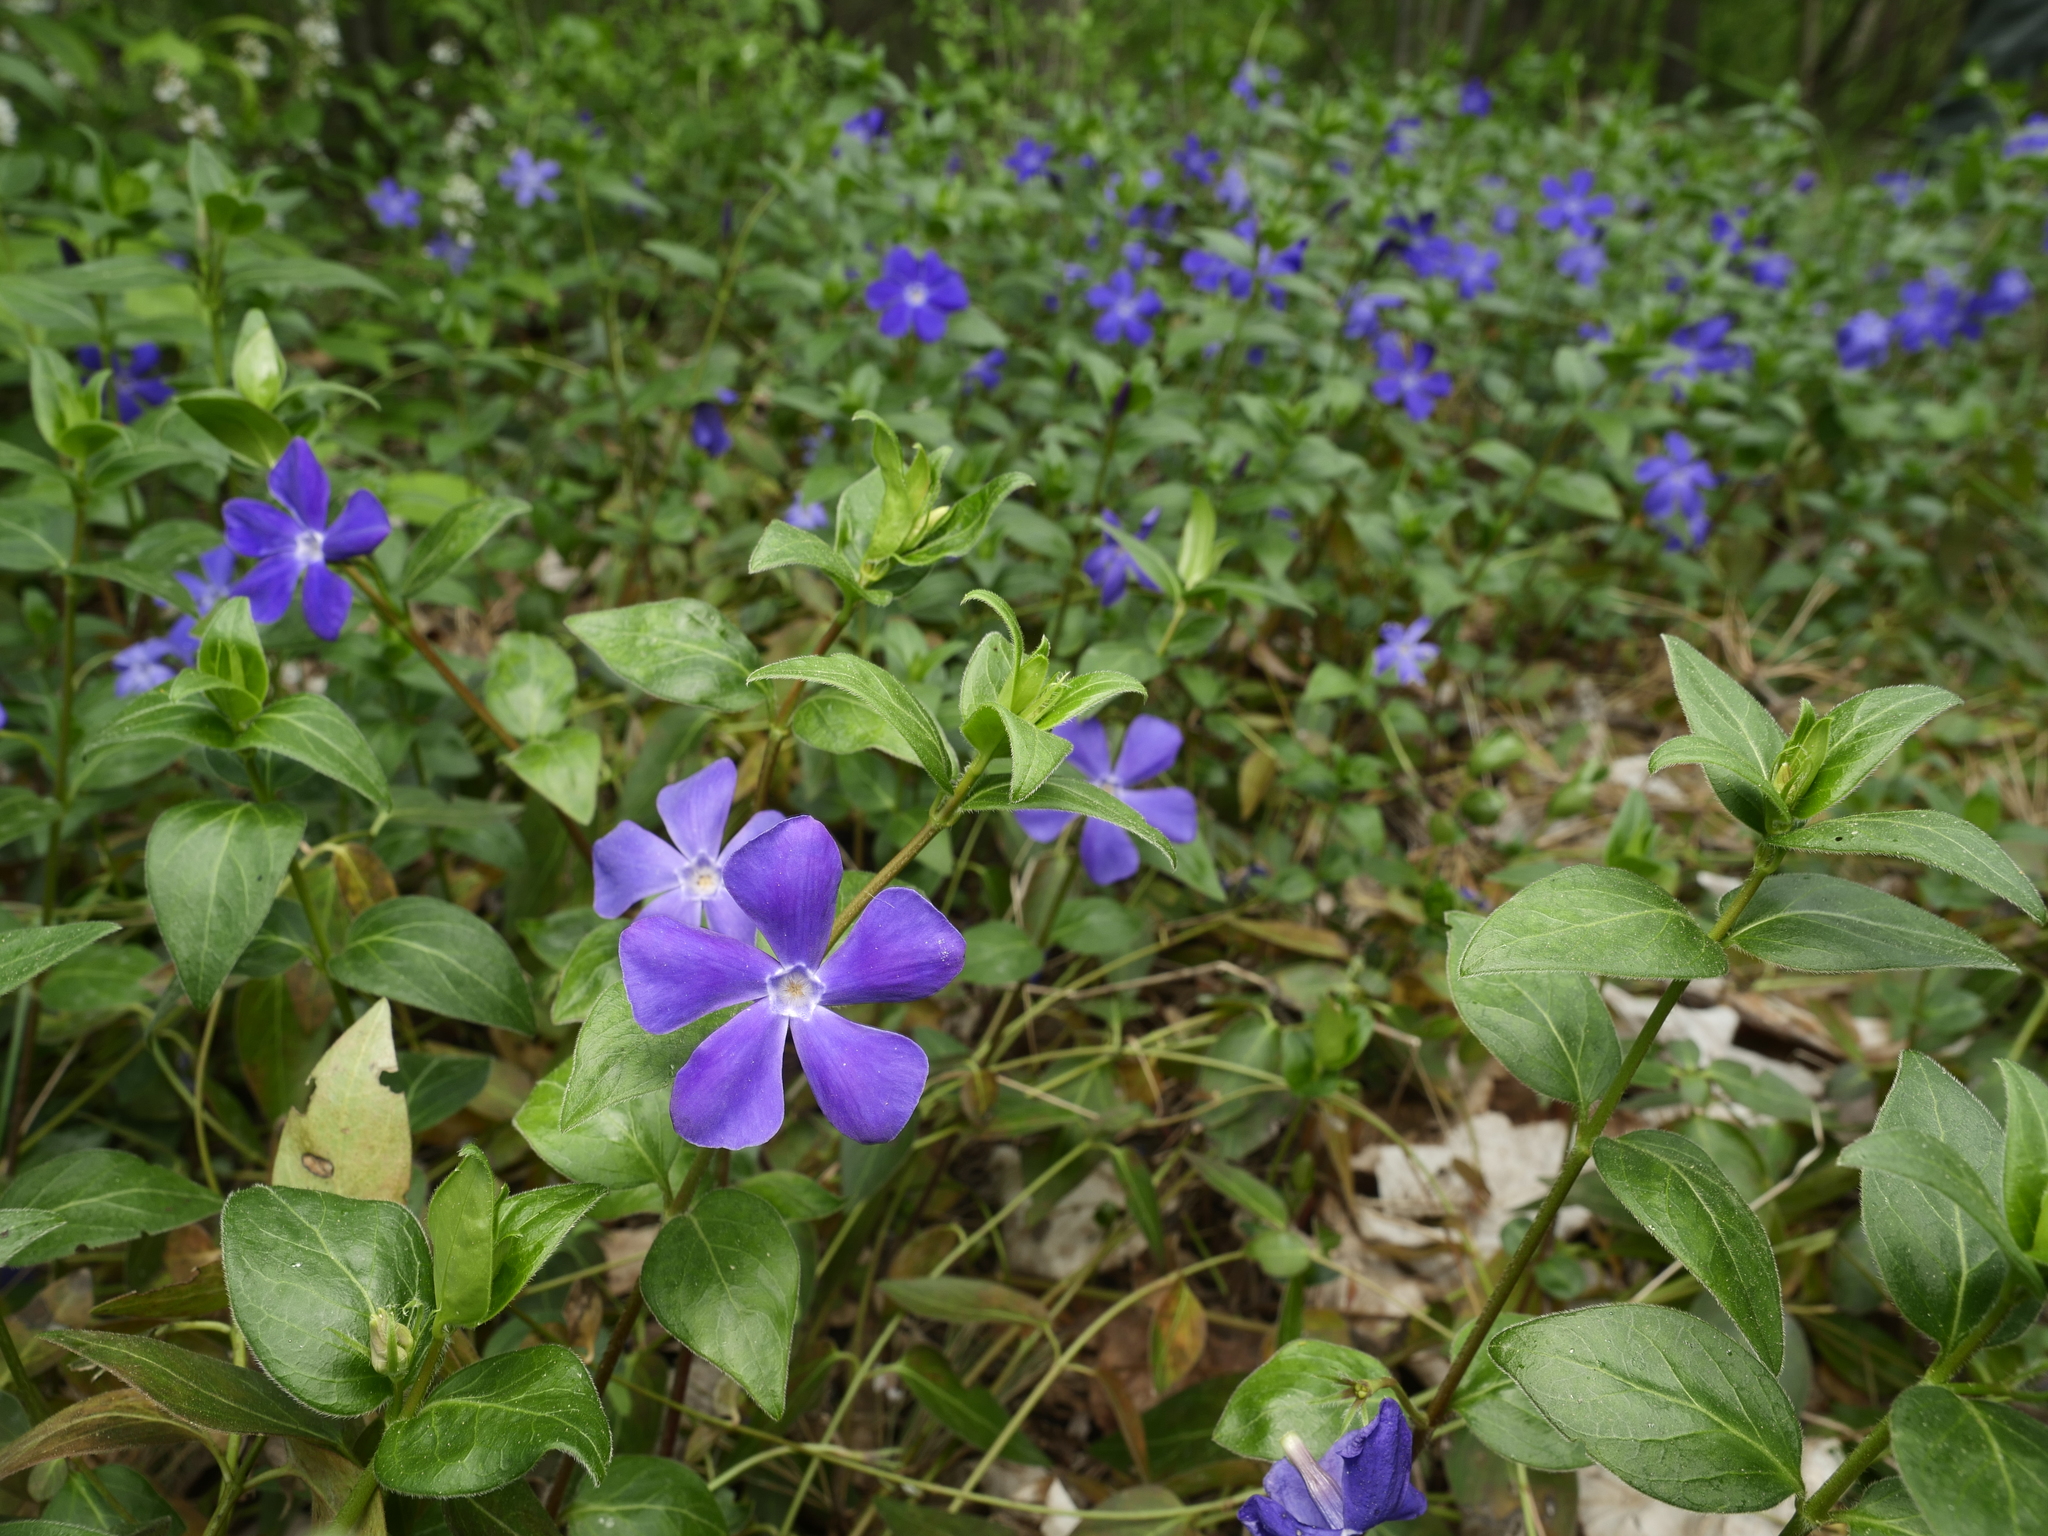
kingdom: Plantae
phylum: Tracheophyta
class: Magnoliopsida
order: Gentianales
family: Apocynaceae
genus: Vinca
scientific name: Vinca minor
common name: Lesser periwinkle
